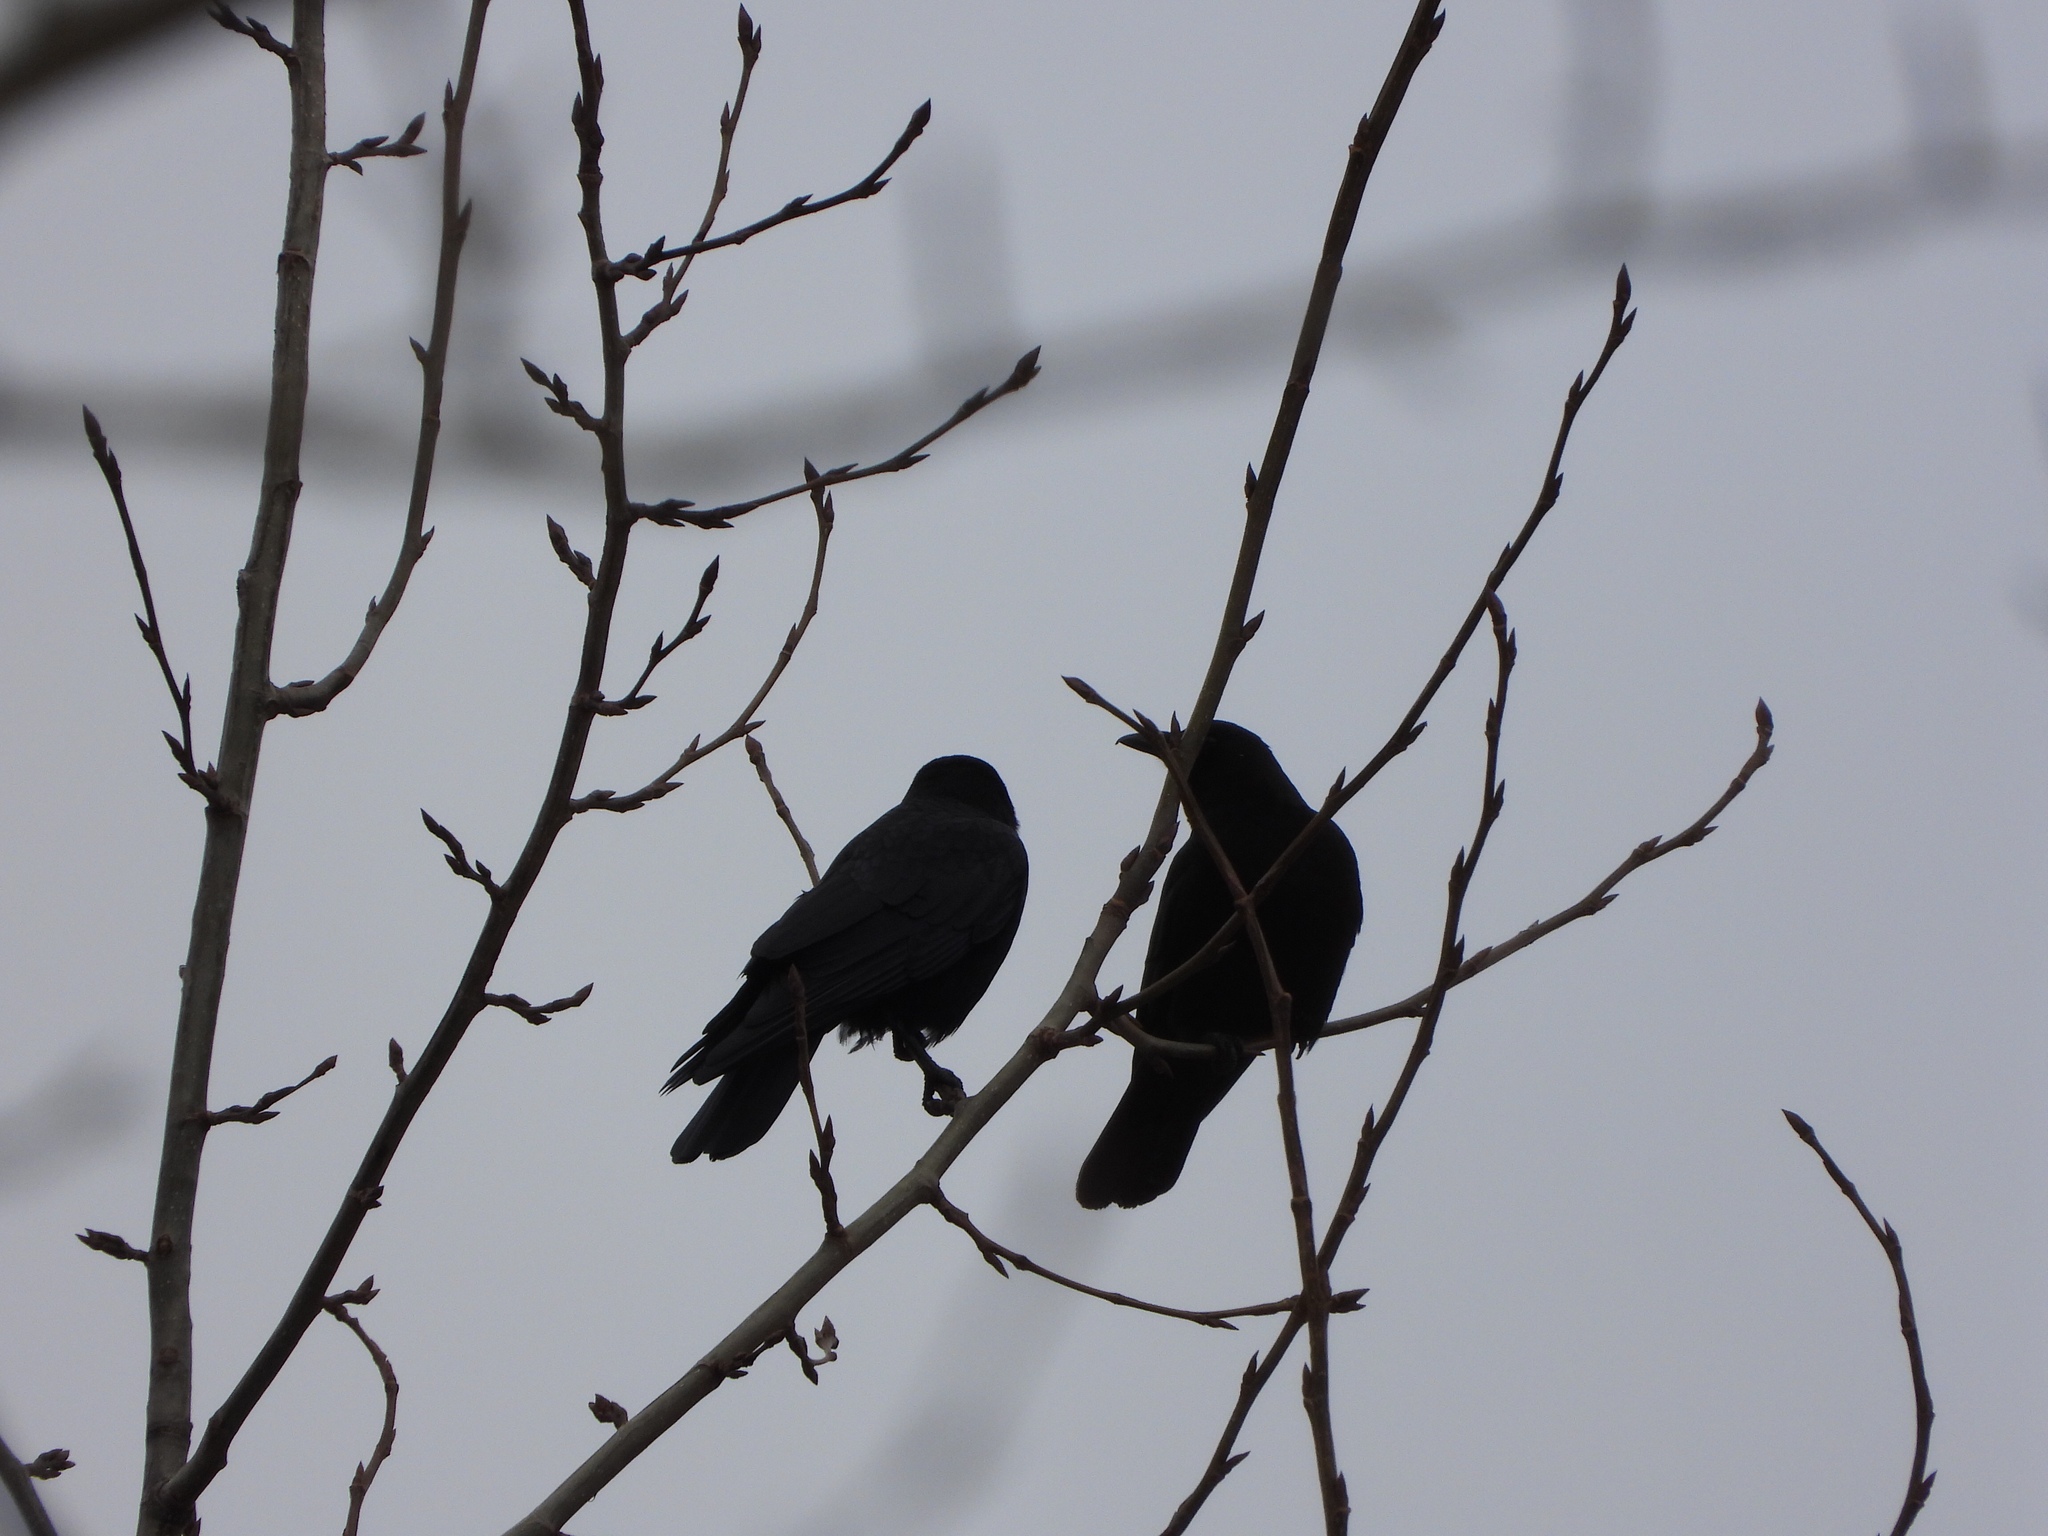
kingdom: Animalia
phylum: Chordata
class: Aves
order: Passeriformes
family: Corvidae
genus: Corvus
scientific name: Corvus brachyrhynchos
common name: American crow
